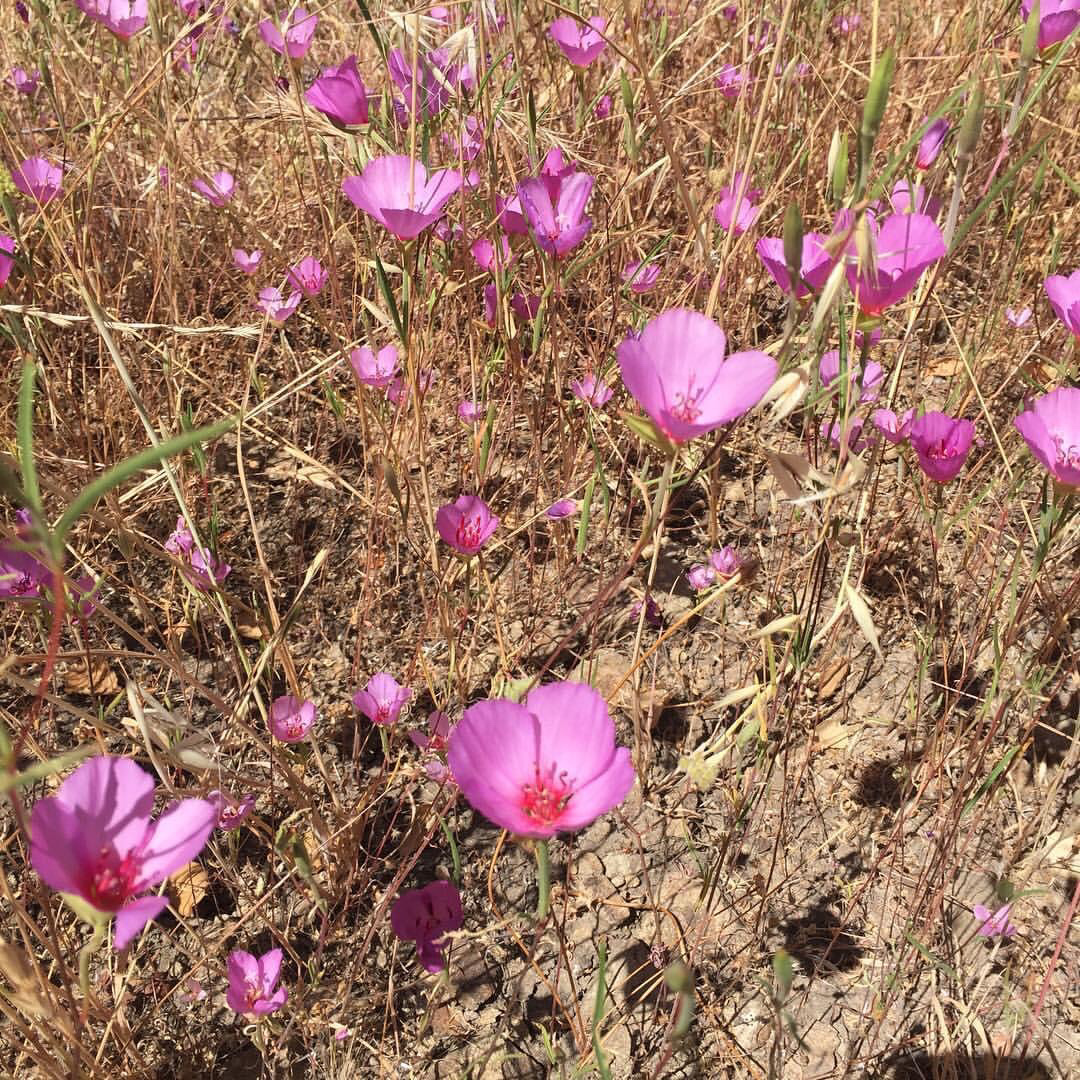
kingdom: Plantae
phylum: Tracheophyta
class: Magnoliopsida
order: Myrtales
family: Onagraceae
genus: Clarkia
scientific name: Clarkia rubicunda
